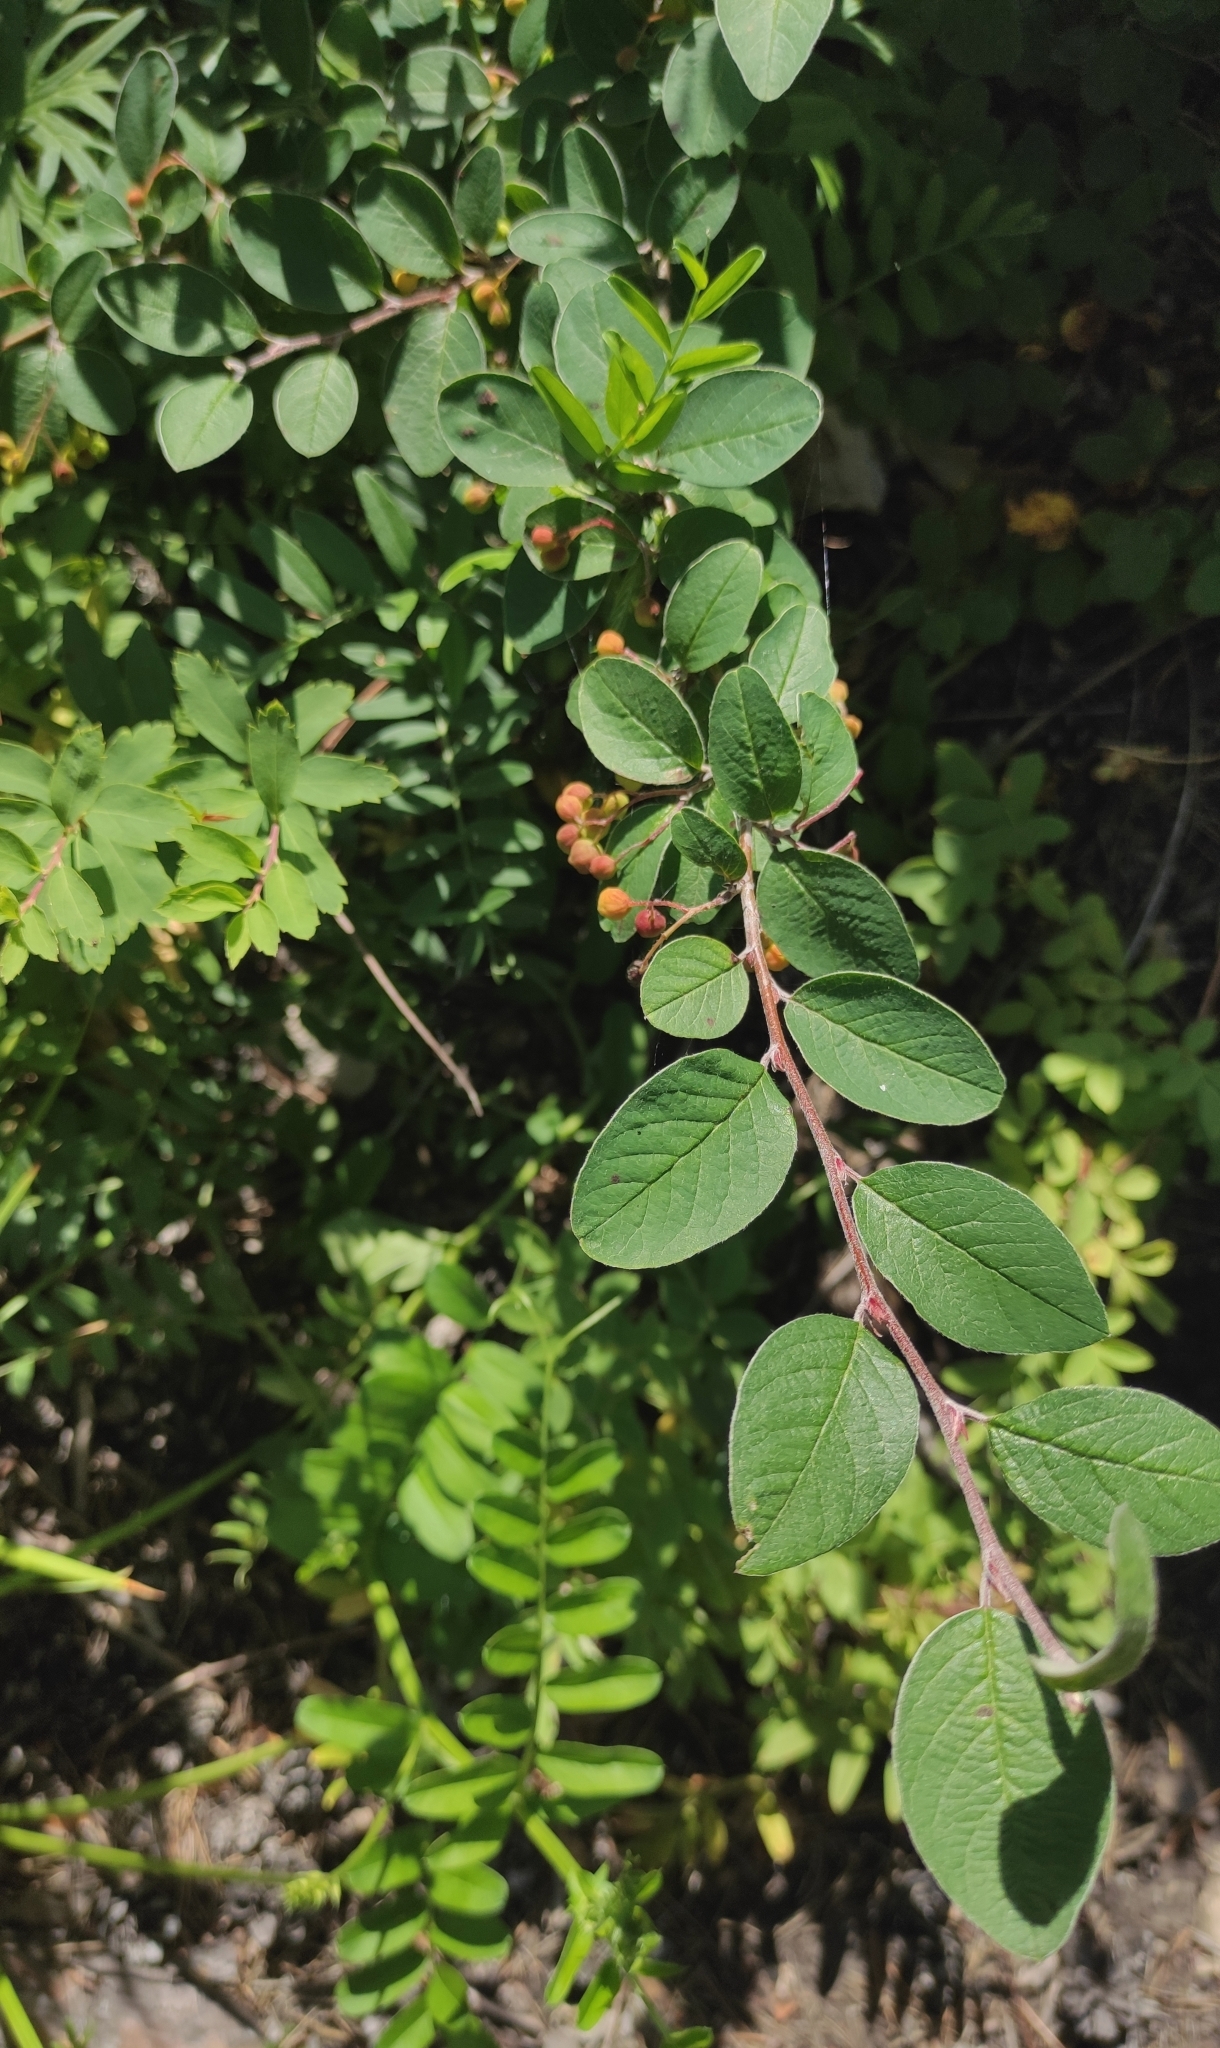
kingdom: Plantae
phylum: Tracheophyta
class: Magnoliopsida
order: Rosales
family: Rosaceae
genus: Cotoneaster
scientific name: Cotoneaster melanocarpus
